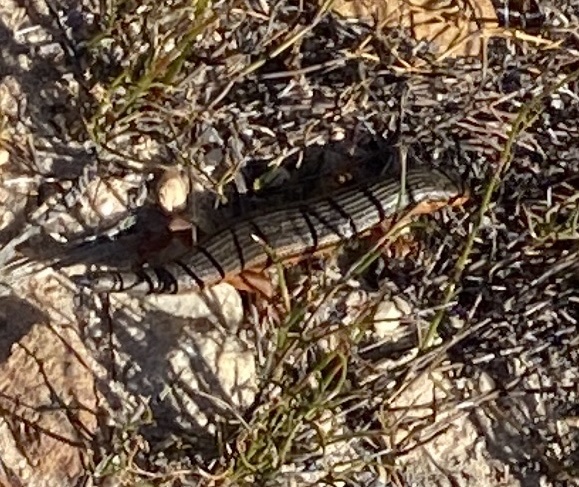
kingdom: Animalia
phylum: Chordata
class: Squamata
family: Scincidae
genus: Trachylepis
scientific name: Trachylepis homalocephala
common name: Red-sided skink
